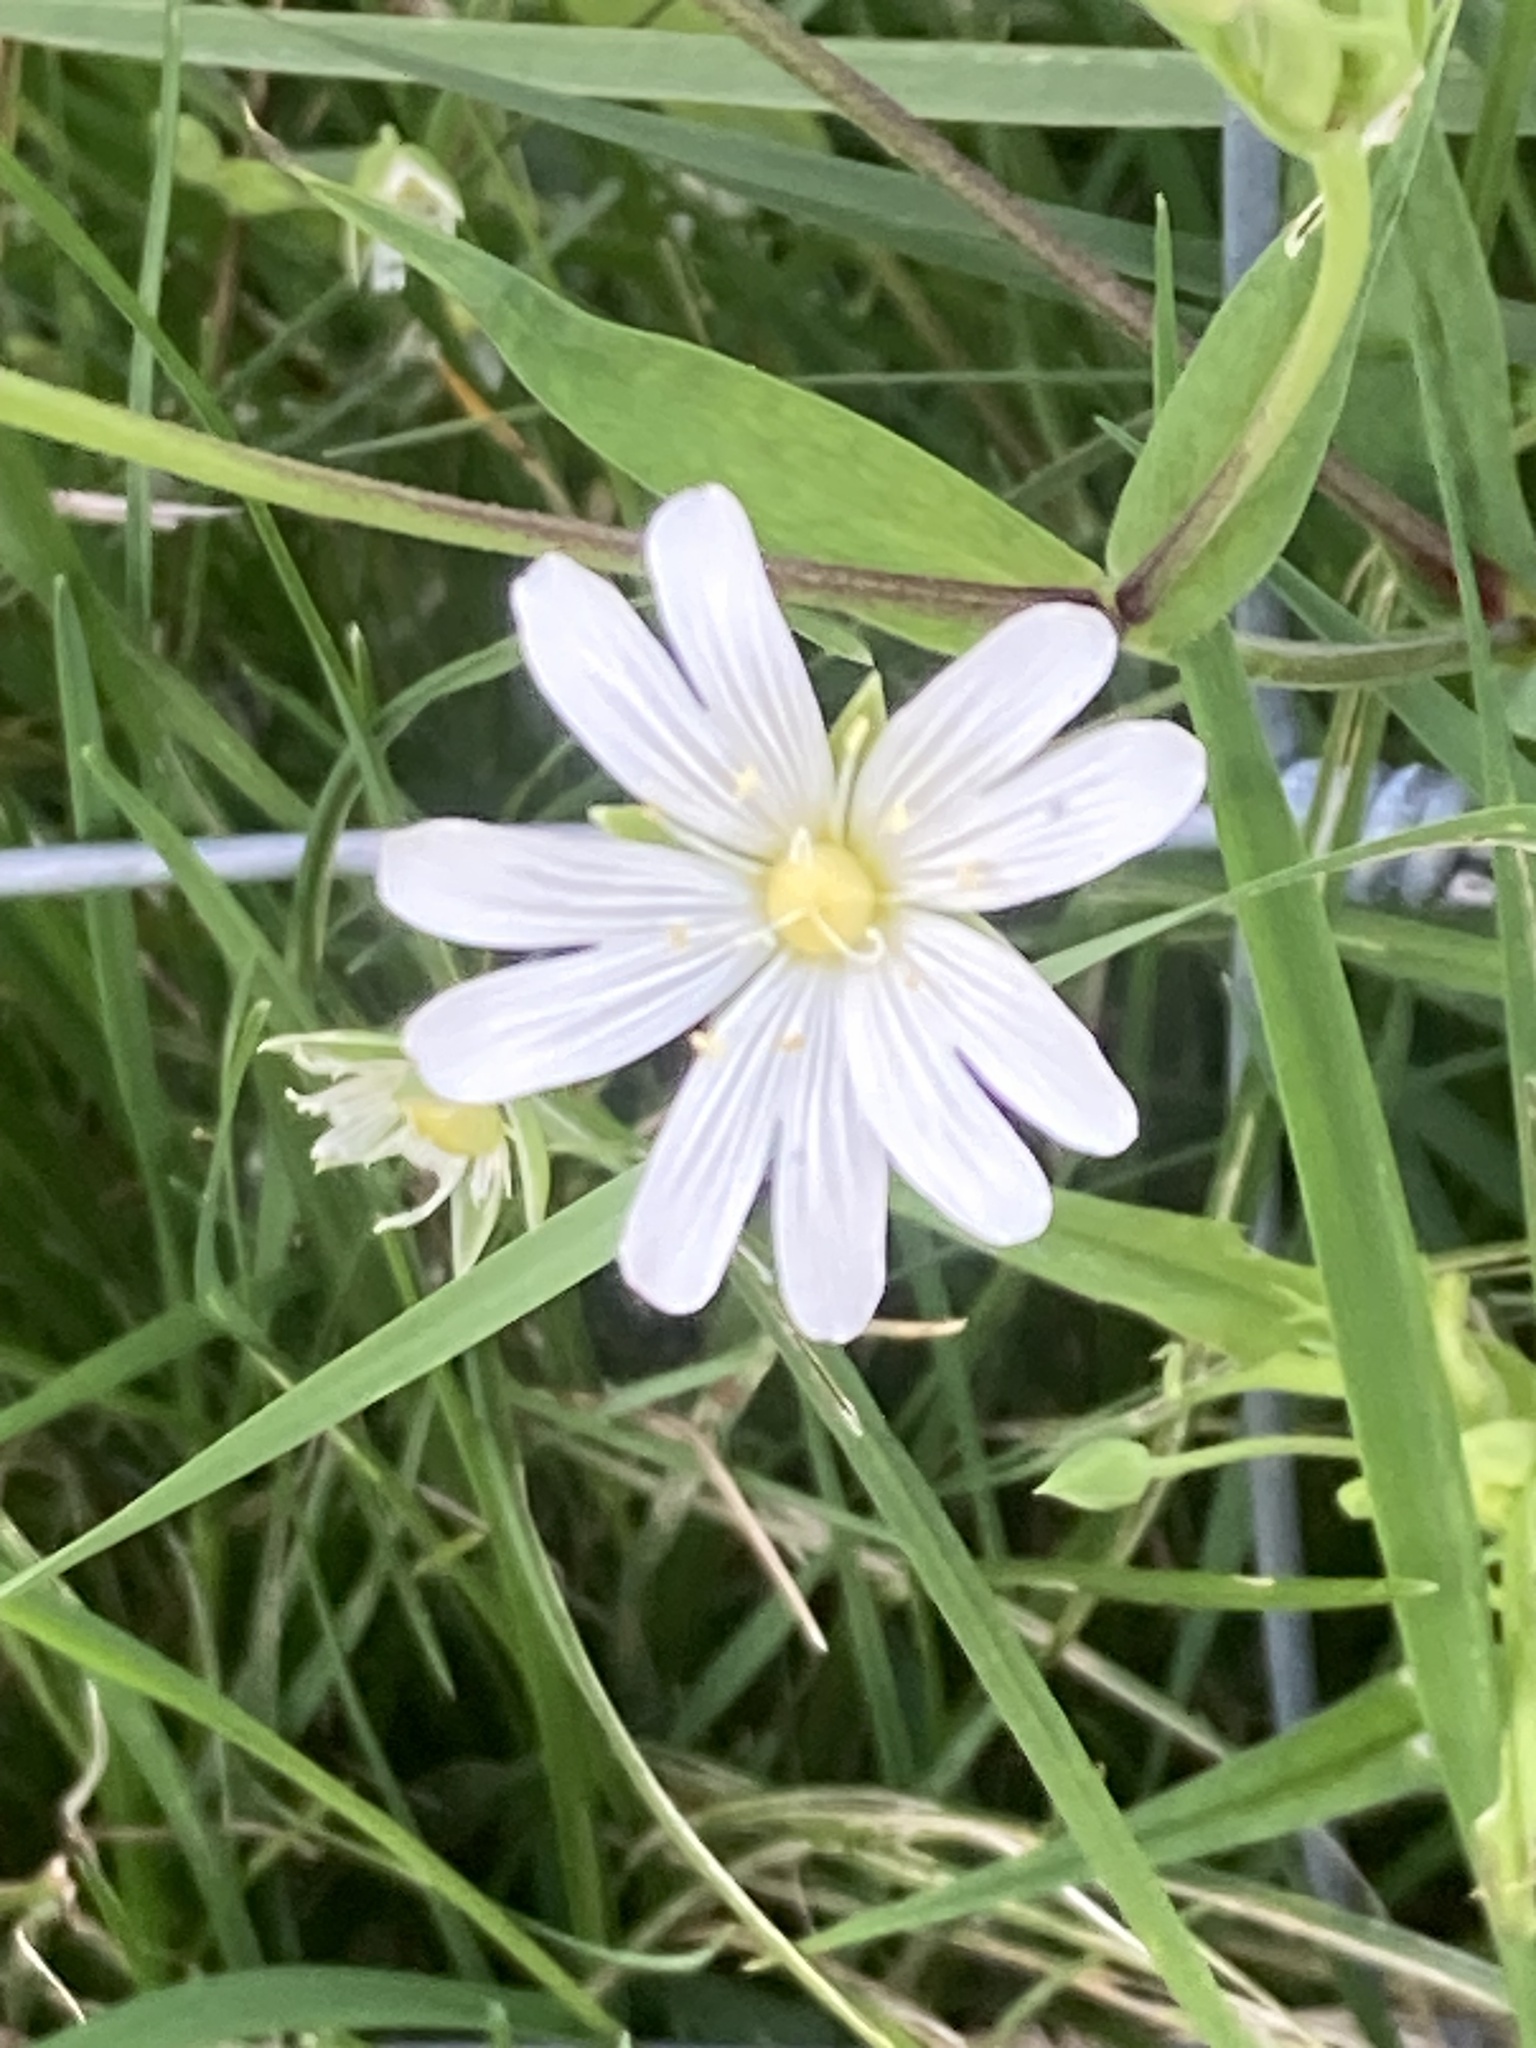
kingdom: Plantae
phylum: Tracheophyta
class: Magnoliopsida
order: Caryophyllales
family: Caryophyllaceae
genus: Rabelera
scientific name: Rabelera holostea
